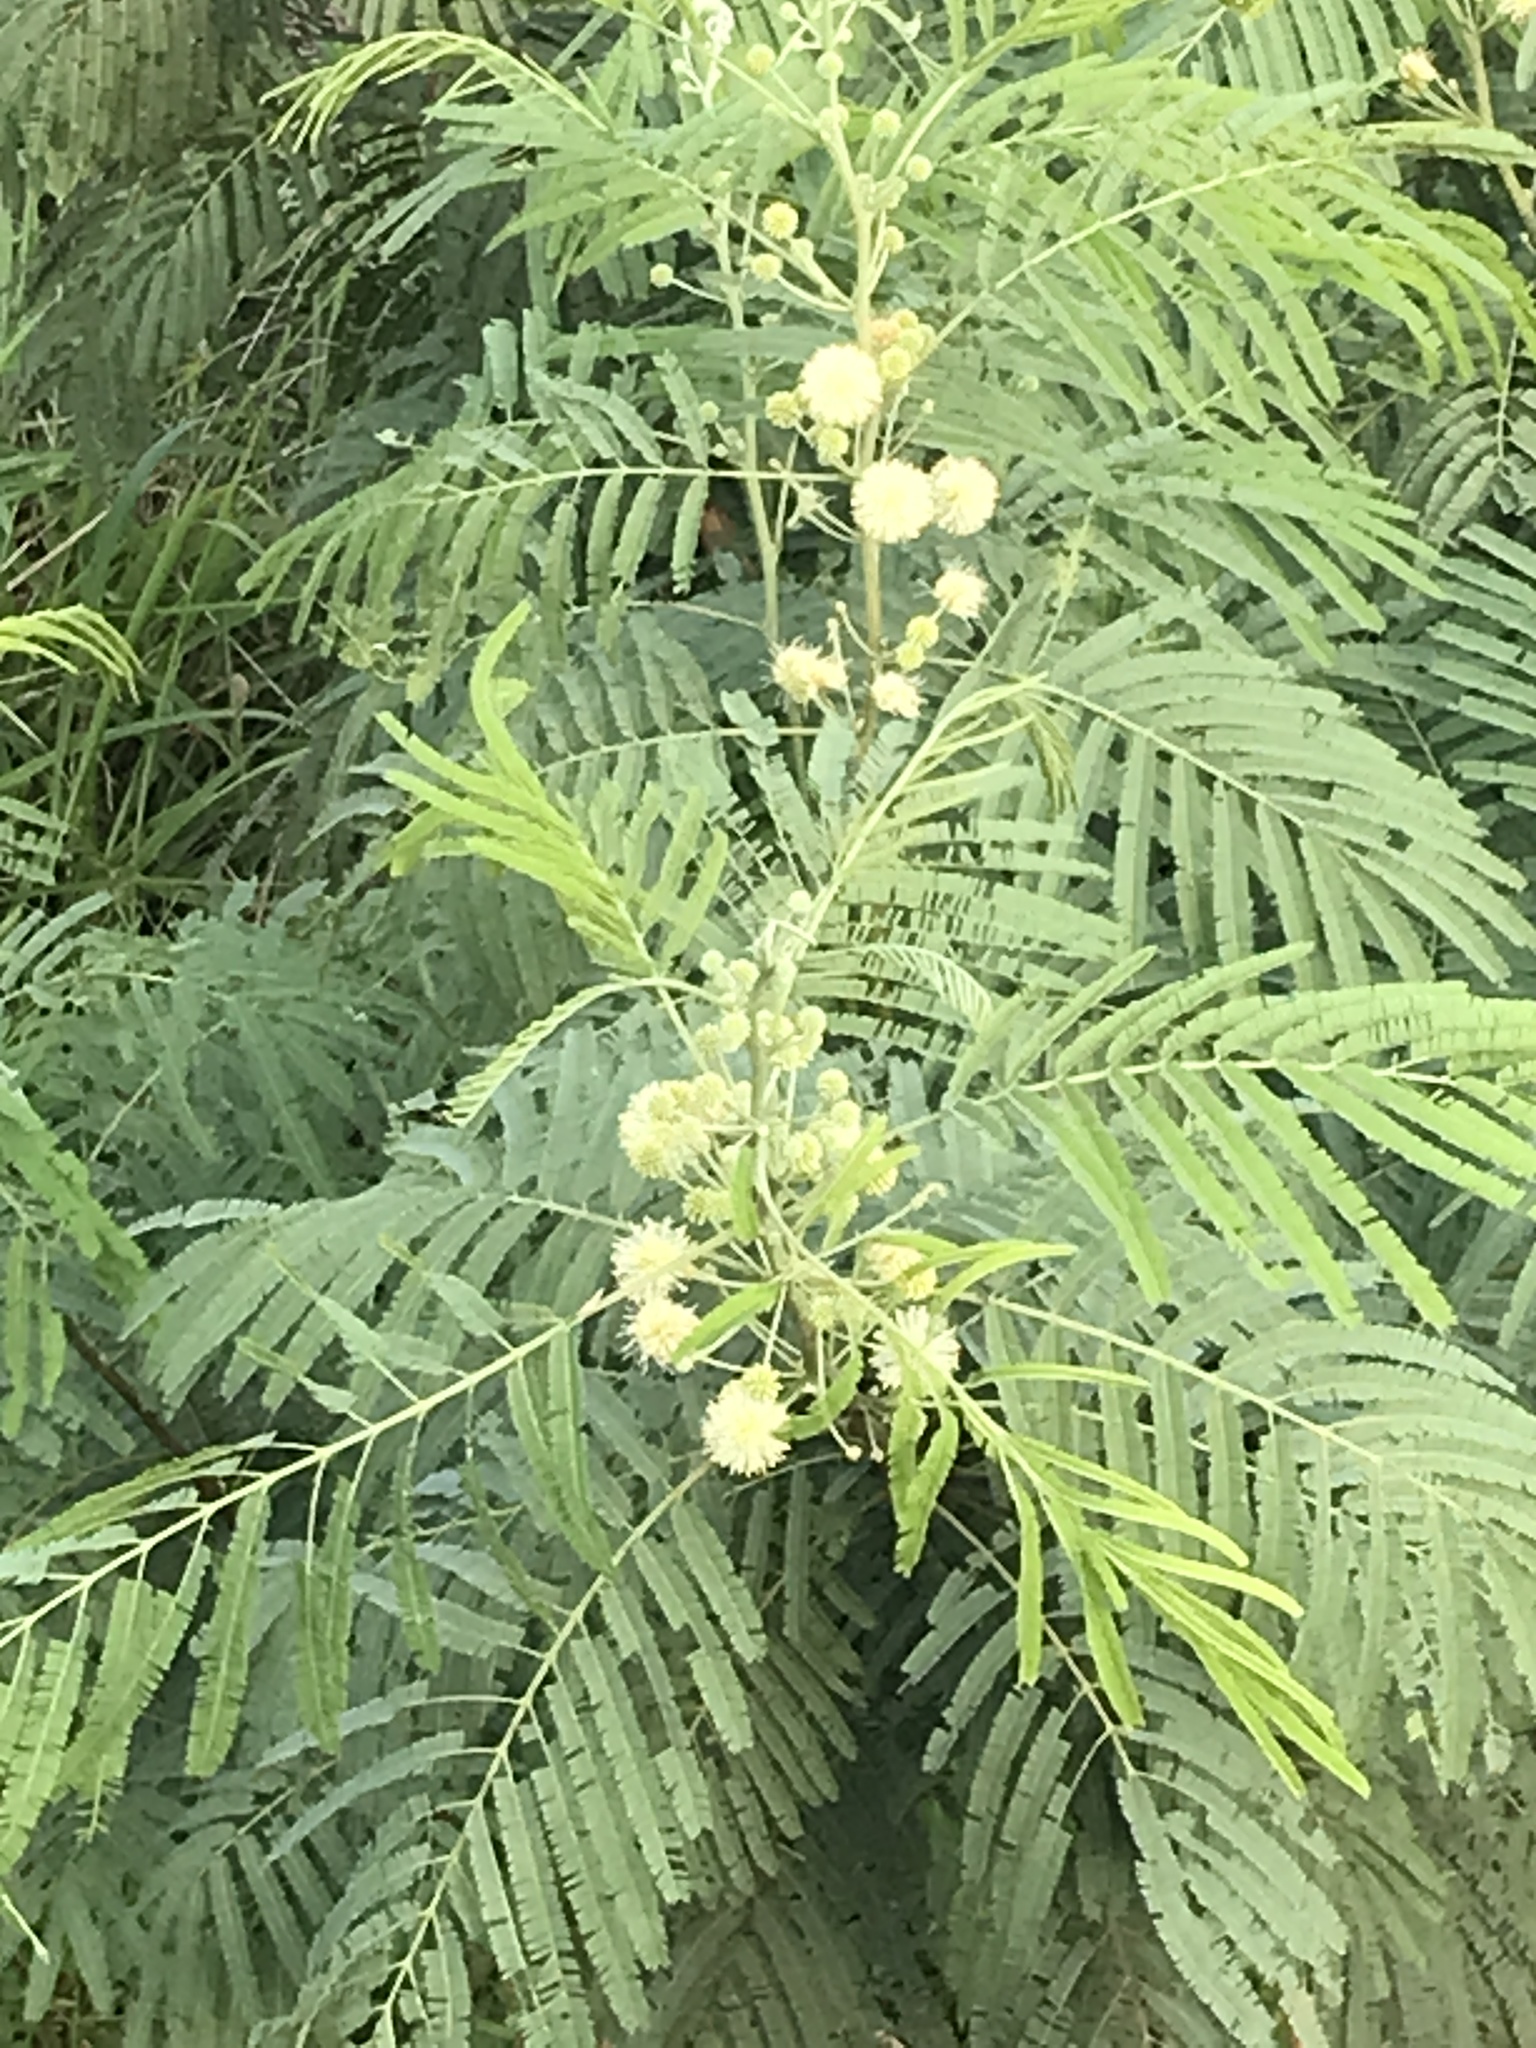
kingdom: Plantae
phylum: Tracheophyta
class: Magnoliopsida
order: Fabales
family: Fabaceae
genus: Leucaena
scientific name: Leucaena pulverulenta
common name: Great leadtree
